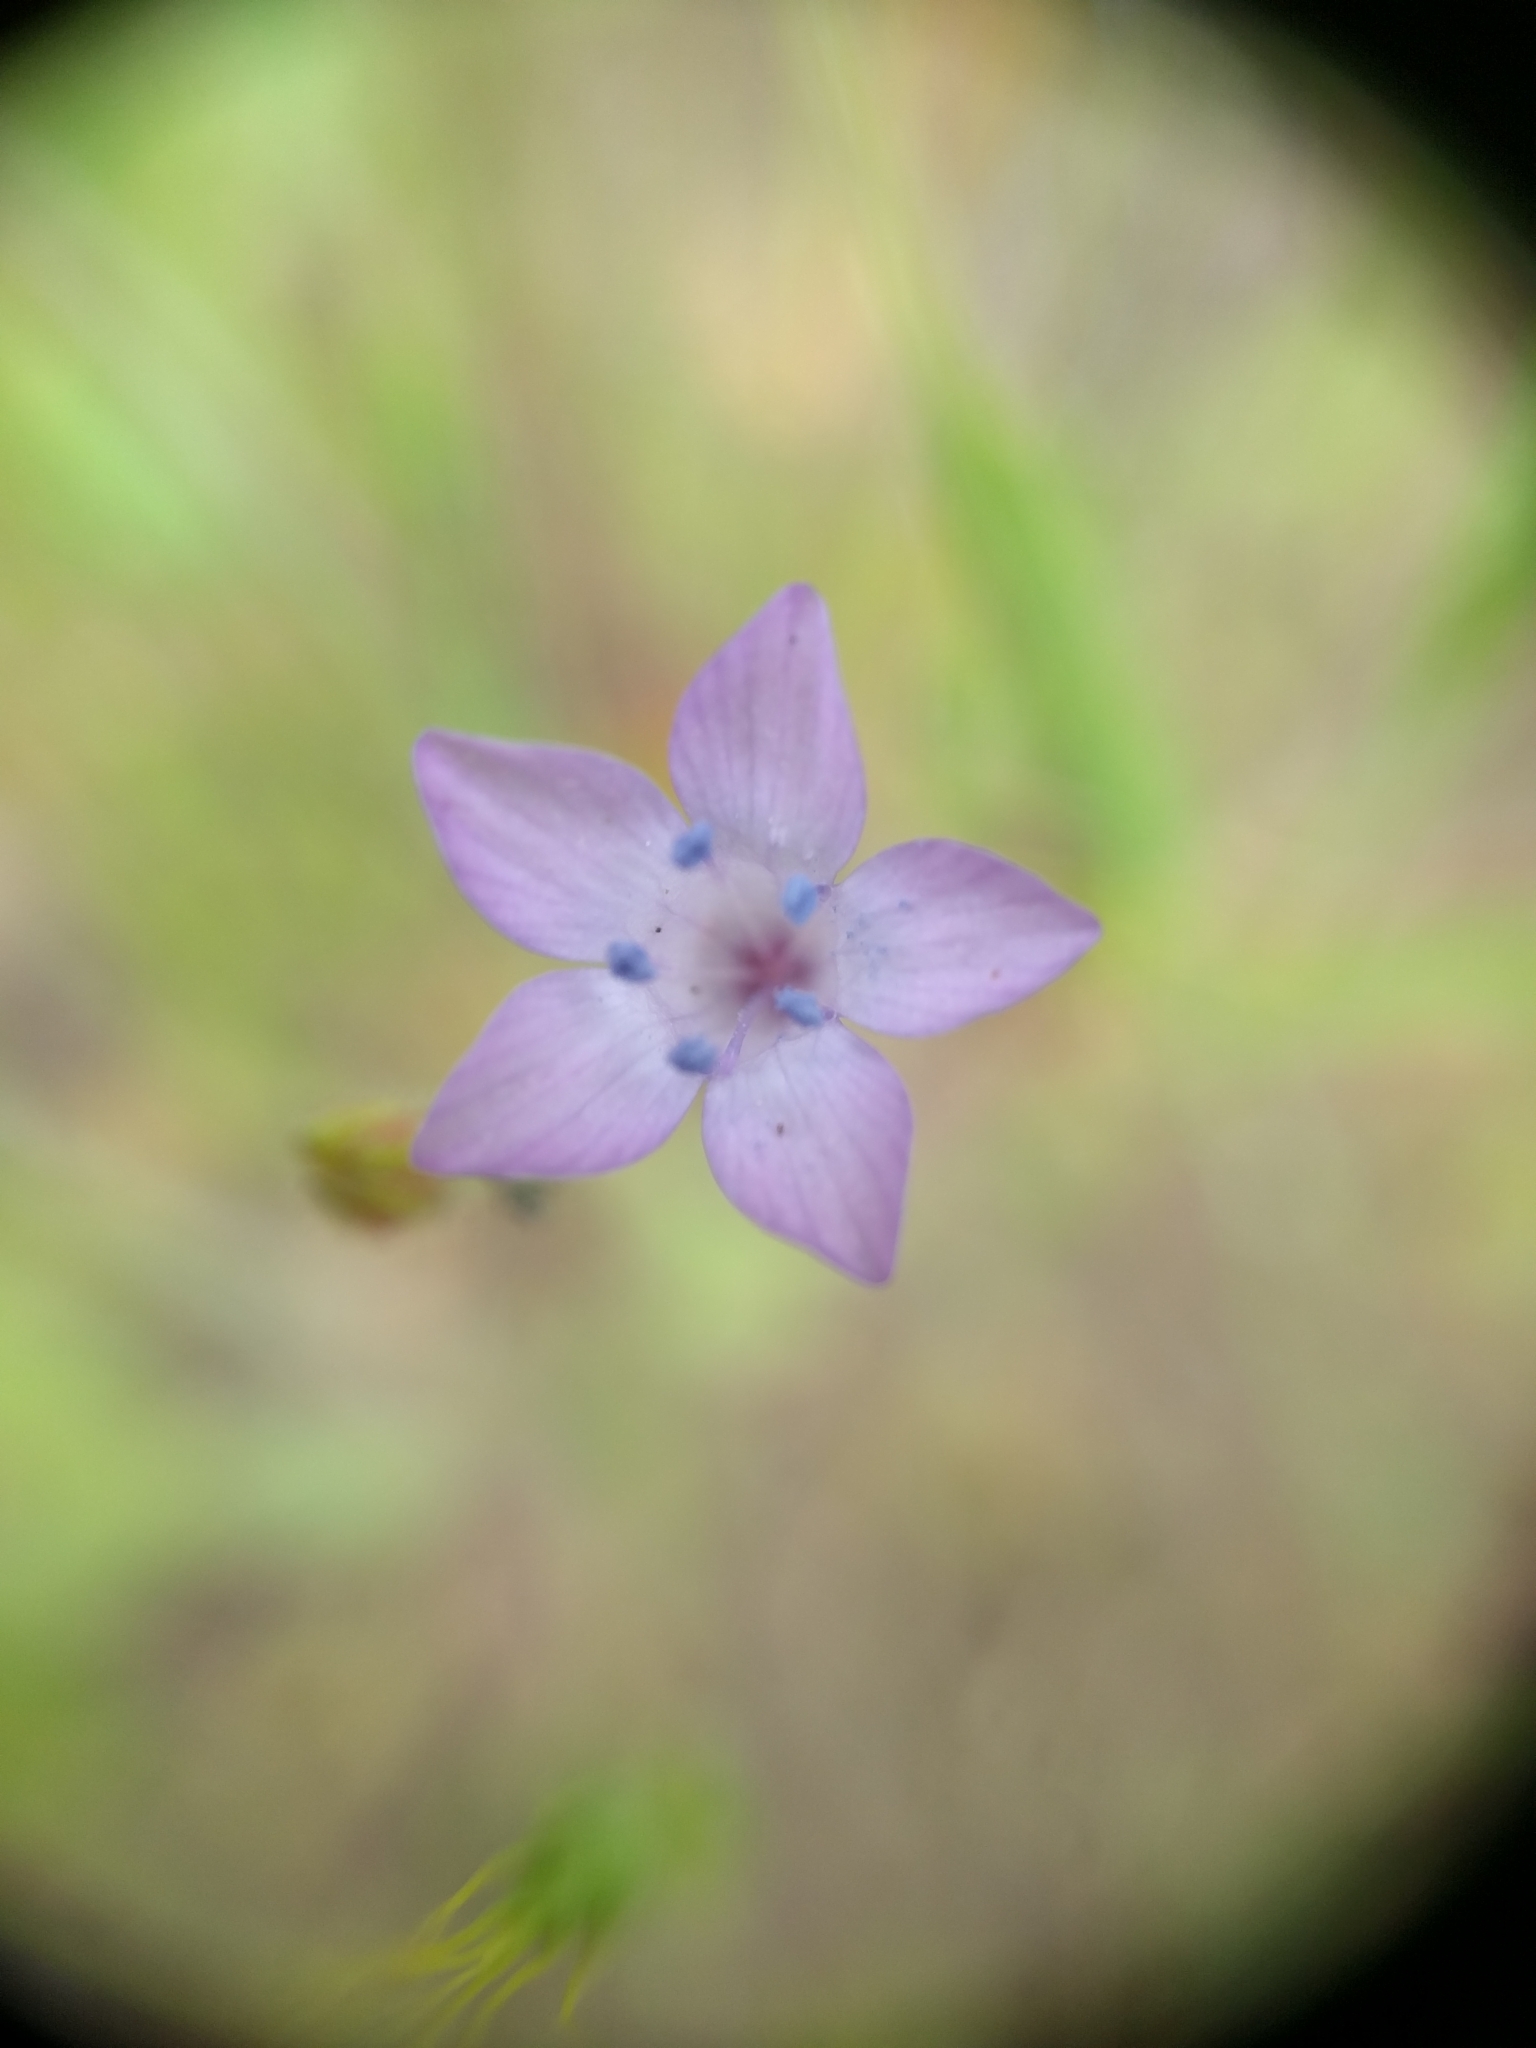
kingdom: Plantae
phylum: Tracheophyta
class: Magnoliopsida
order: Ericales
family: Polemoniaceae
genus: Gilia
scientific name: Gilia achilleifolia
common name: California gily-flower
